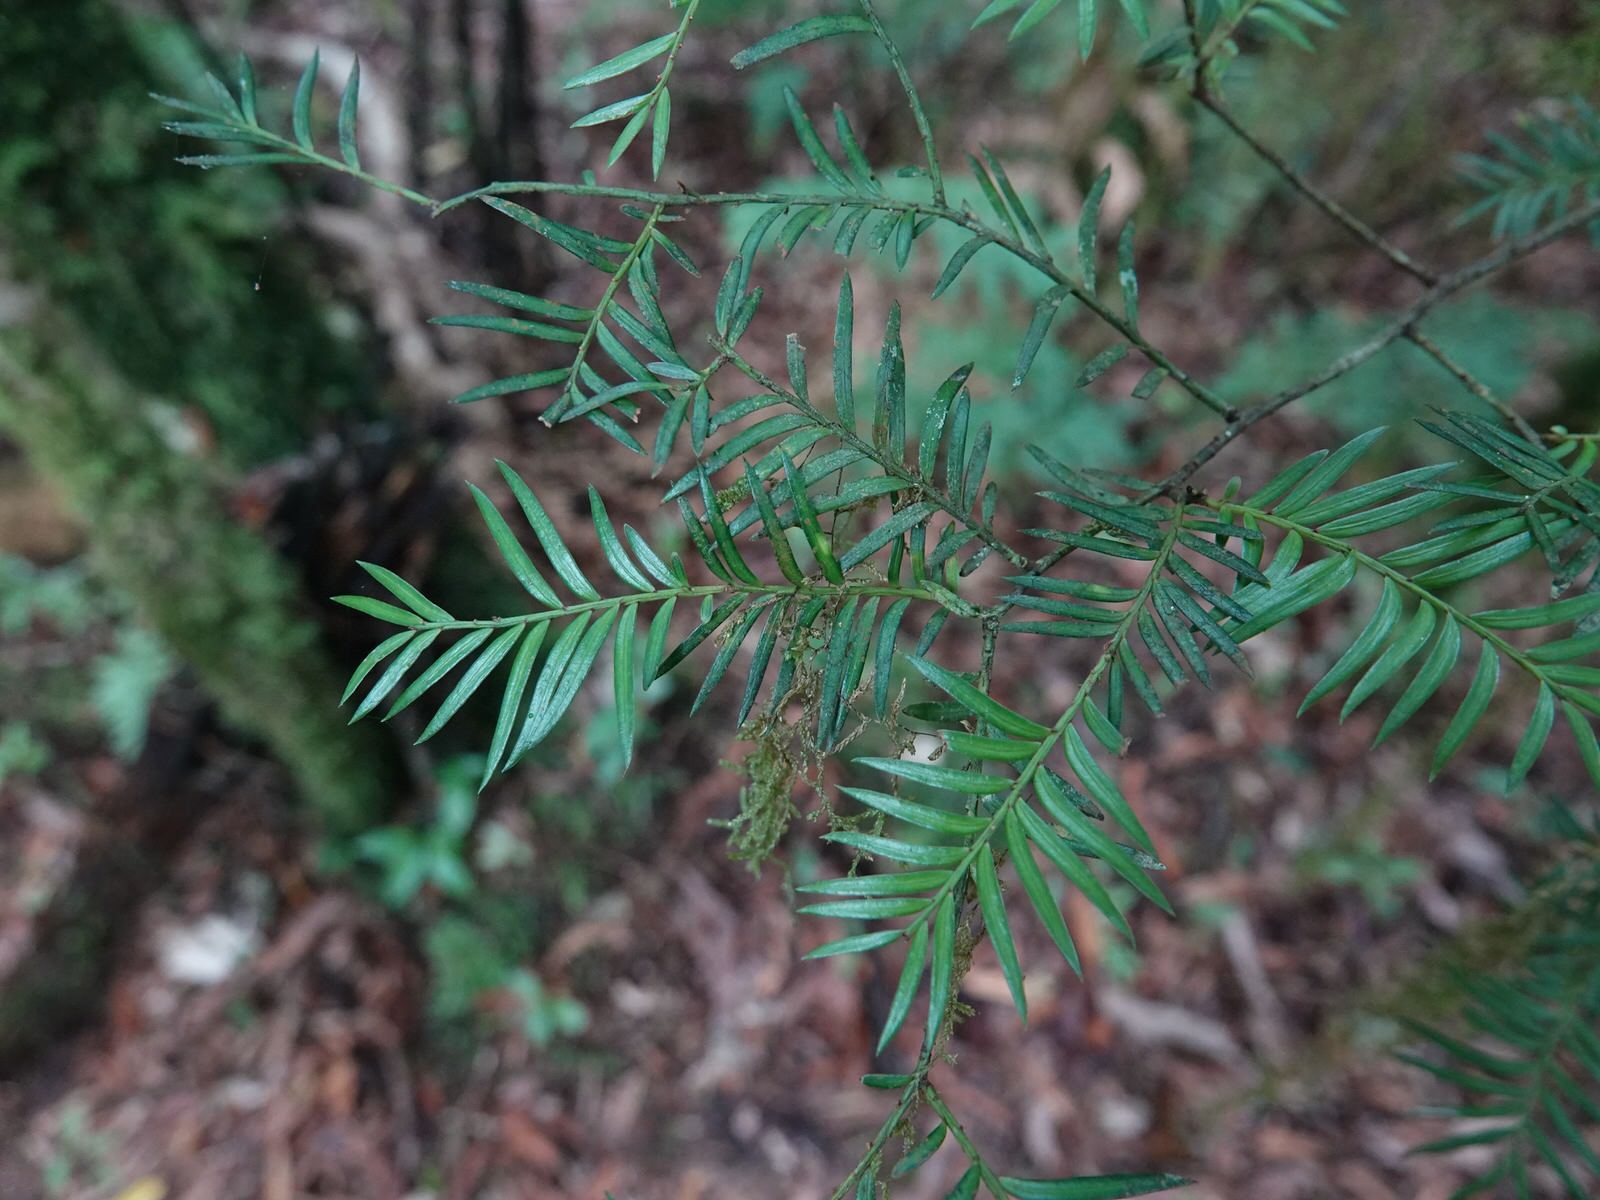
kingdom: Plantae
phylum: Tracheophyta
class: Pinopsida
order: Pinales
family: Podocarpaceae
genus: Prumnopitys
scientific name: Prumnopitys ferruginea
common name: Brown pine
